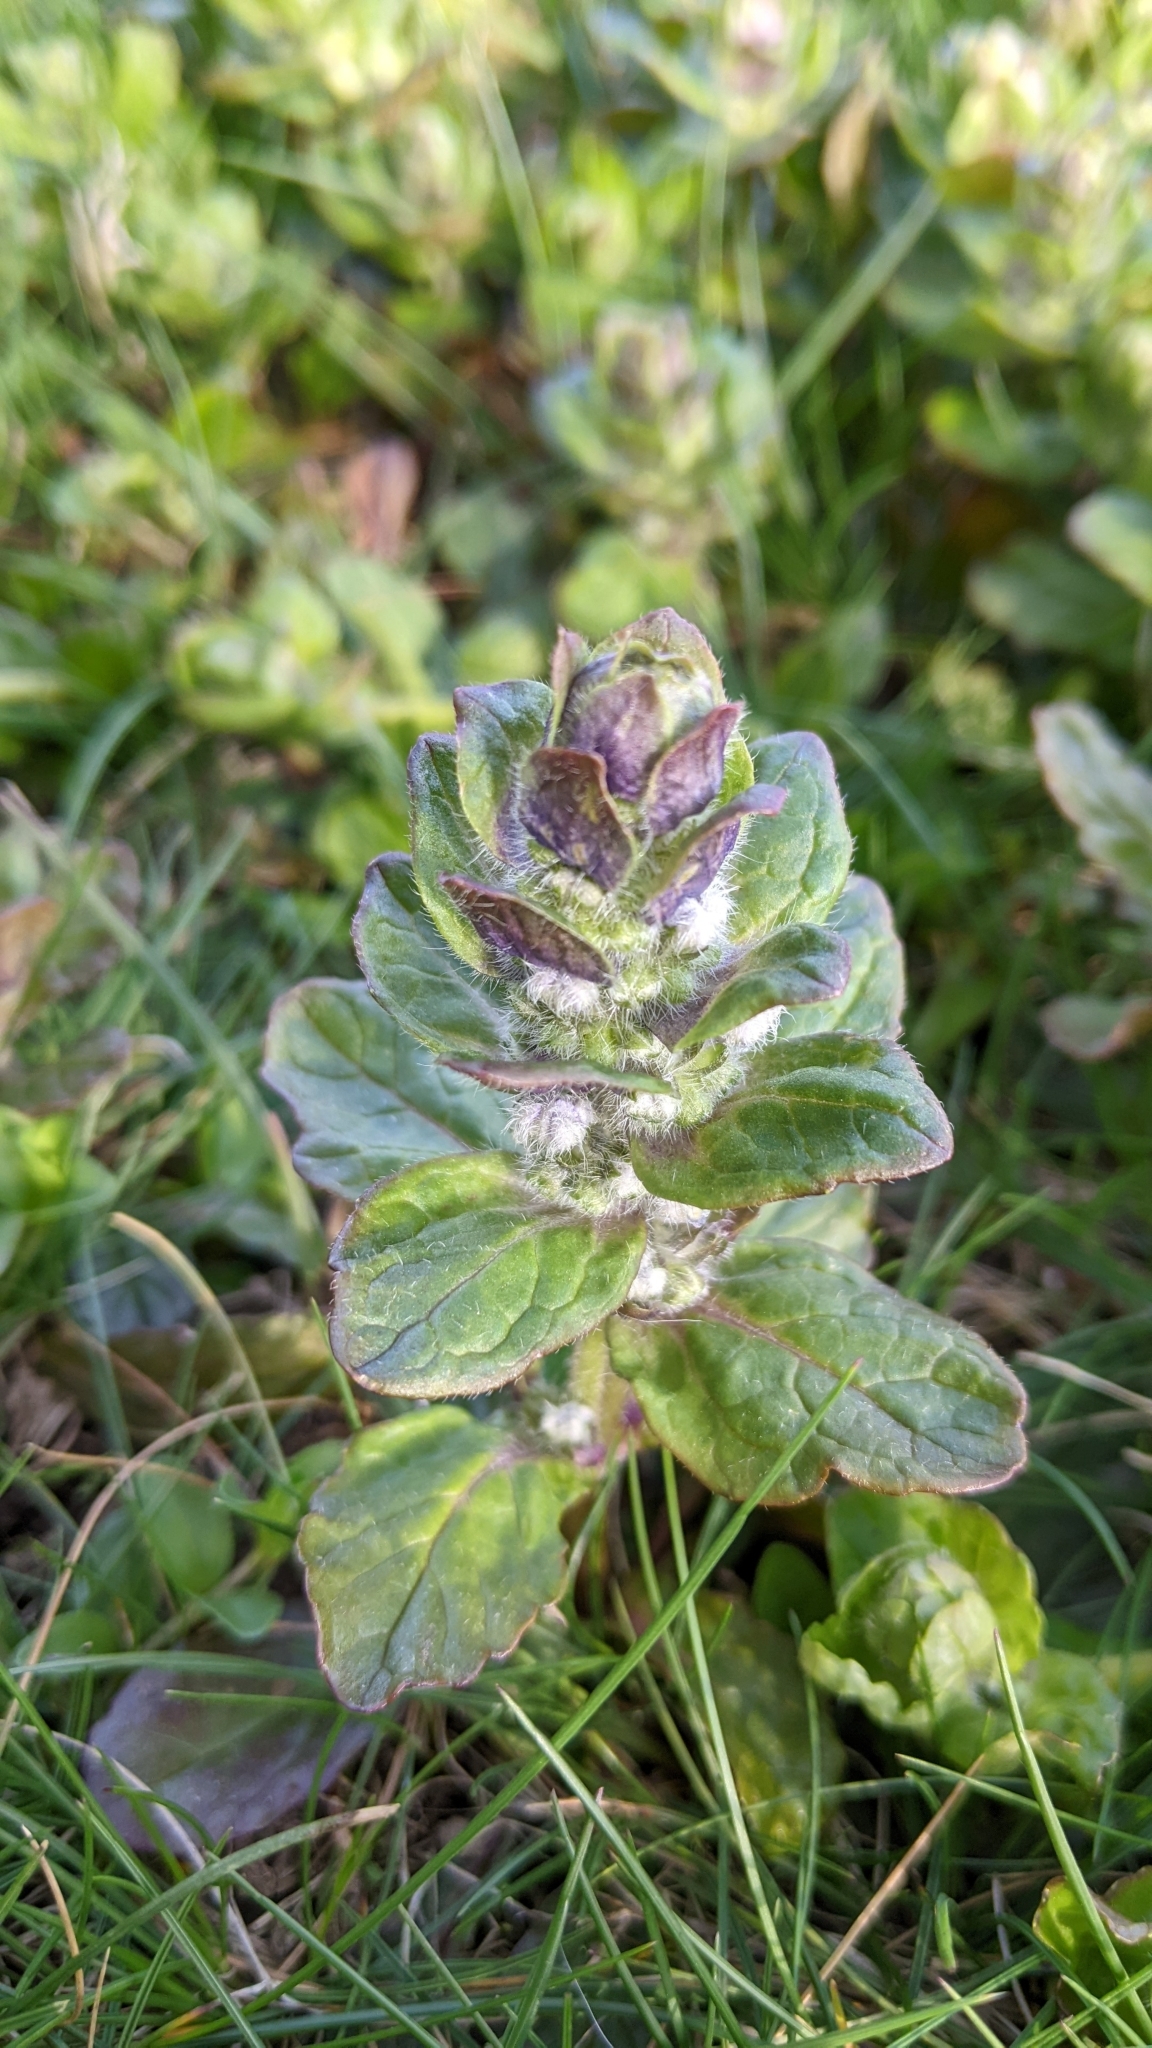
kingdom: Plantae
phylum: Tracheophyta
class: Magnoliopsida
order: Lamiales
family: Lamiaceae
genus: Ajuga
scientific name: Ajuga reptans
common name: Bugle
